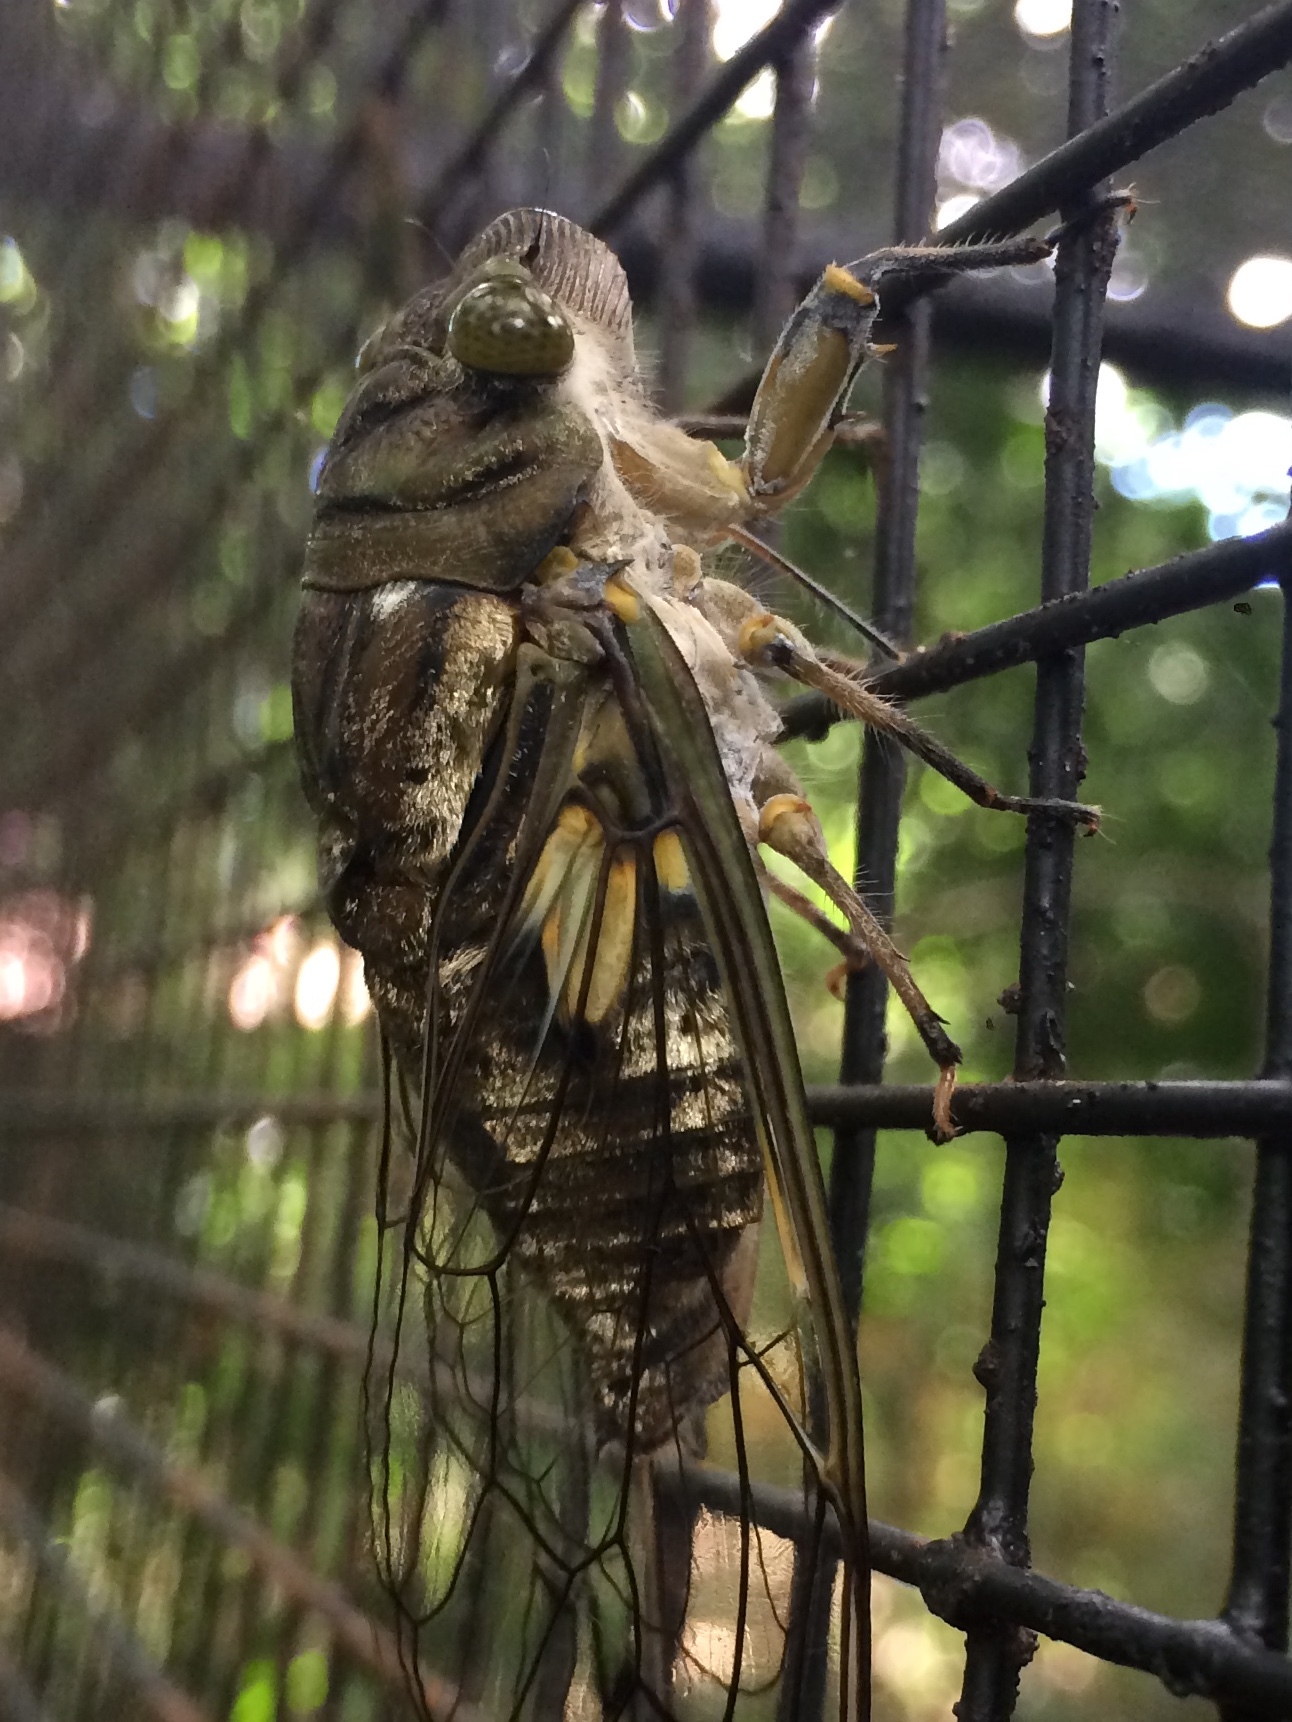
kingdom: Animalia
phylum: Arthropoda
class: Insecta
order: Hemiptera
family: Cicadidae
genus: Quesada
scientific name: Quesada gigas
